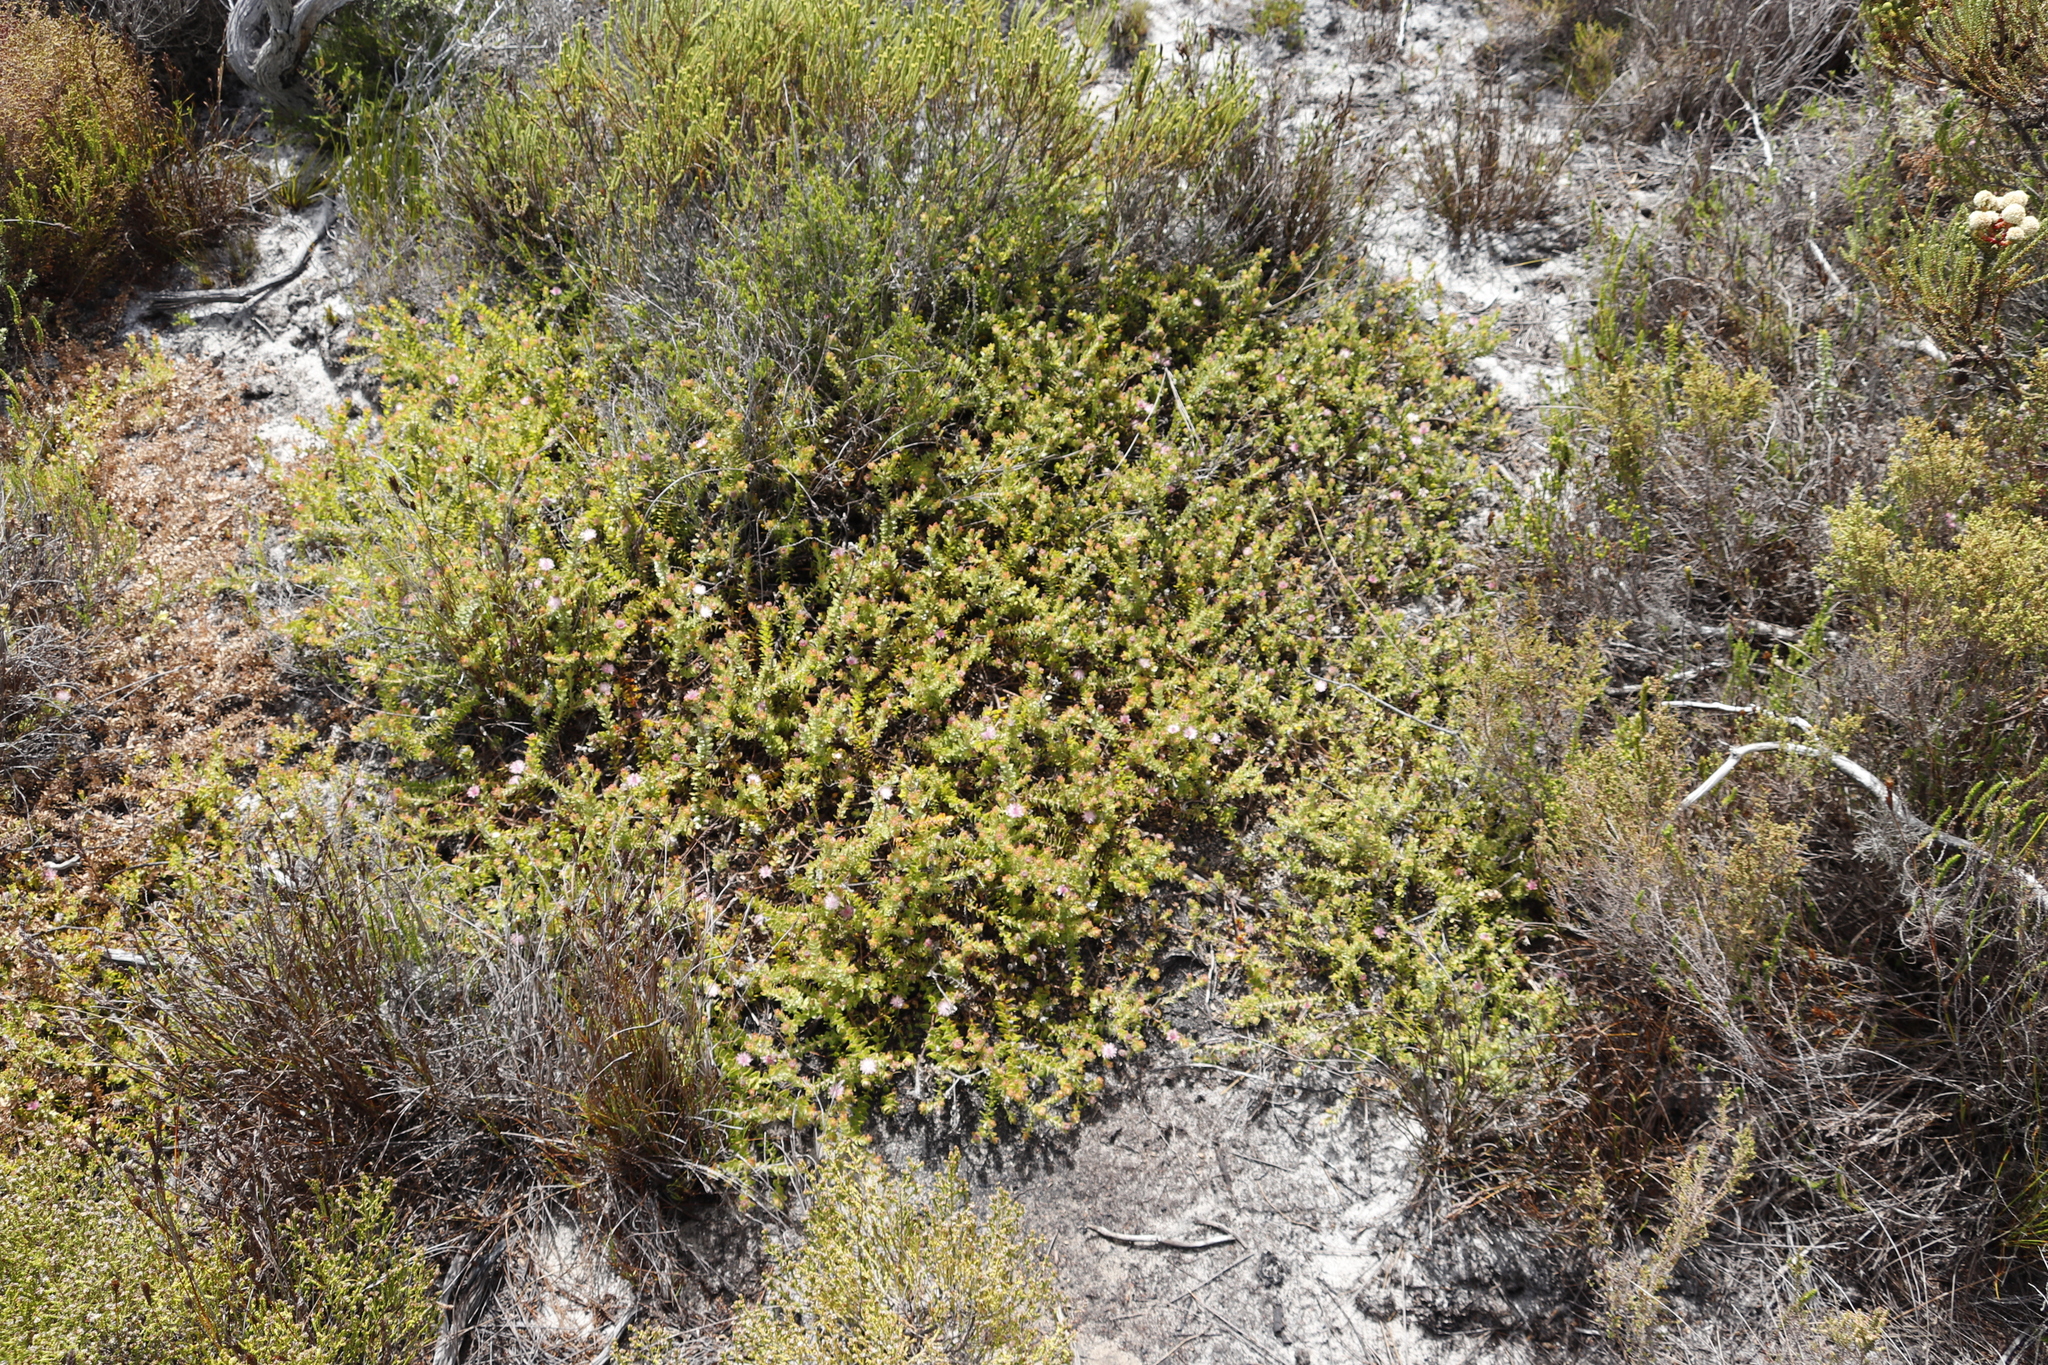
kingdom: Plantae
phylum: Tracheophyta
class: Magnoliopsida
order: Proteales
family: Proteaceae
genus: Diastella
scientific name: Diastella divaricata
